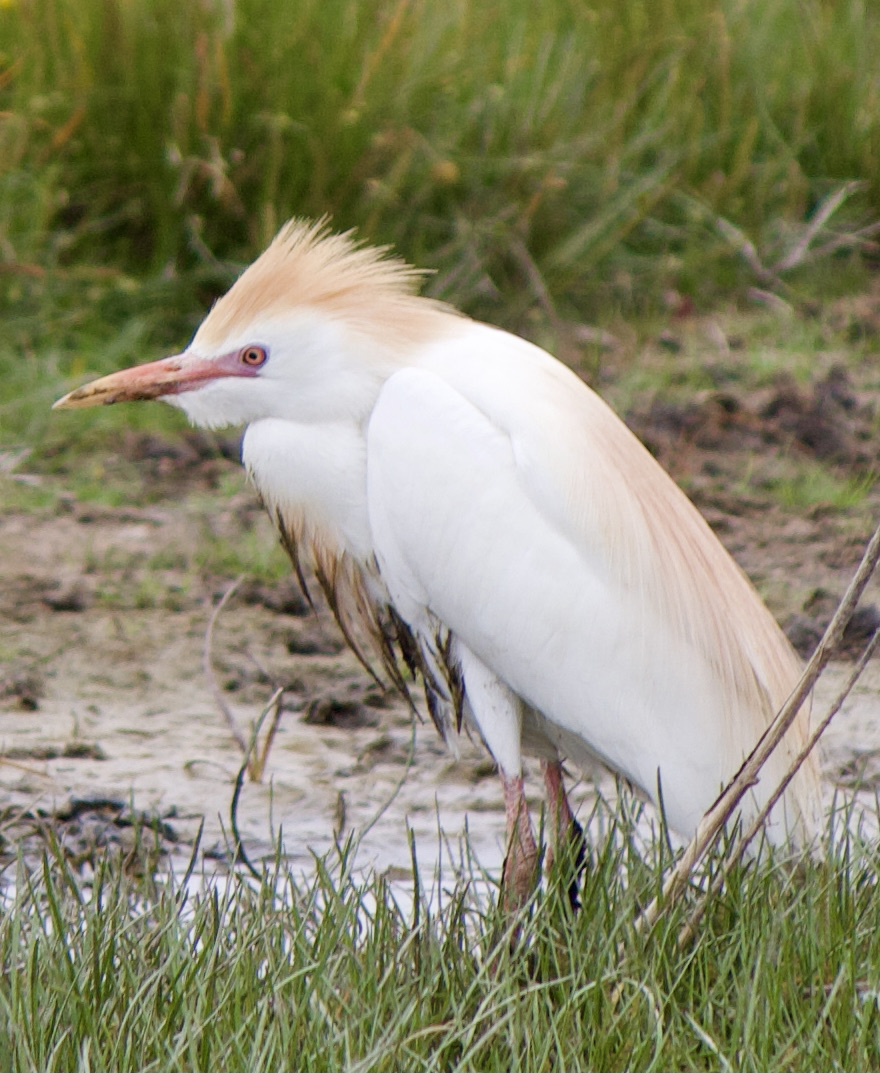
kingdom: Animalia
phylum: Chordata
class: Aves
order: Pelecaniformes
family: Ardeidae
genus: Bubulcus
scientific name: Bubulcus ibis
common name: Cattle egret
